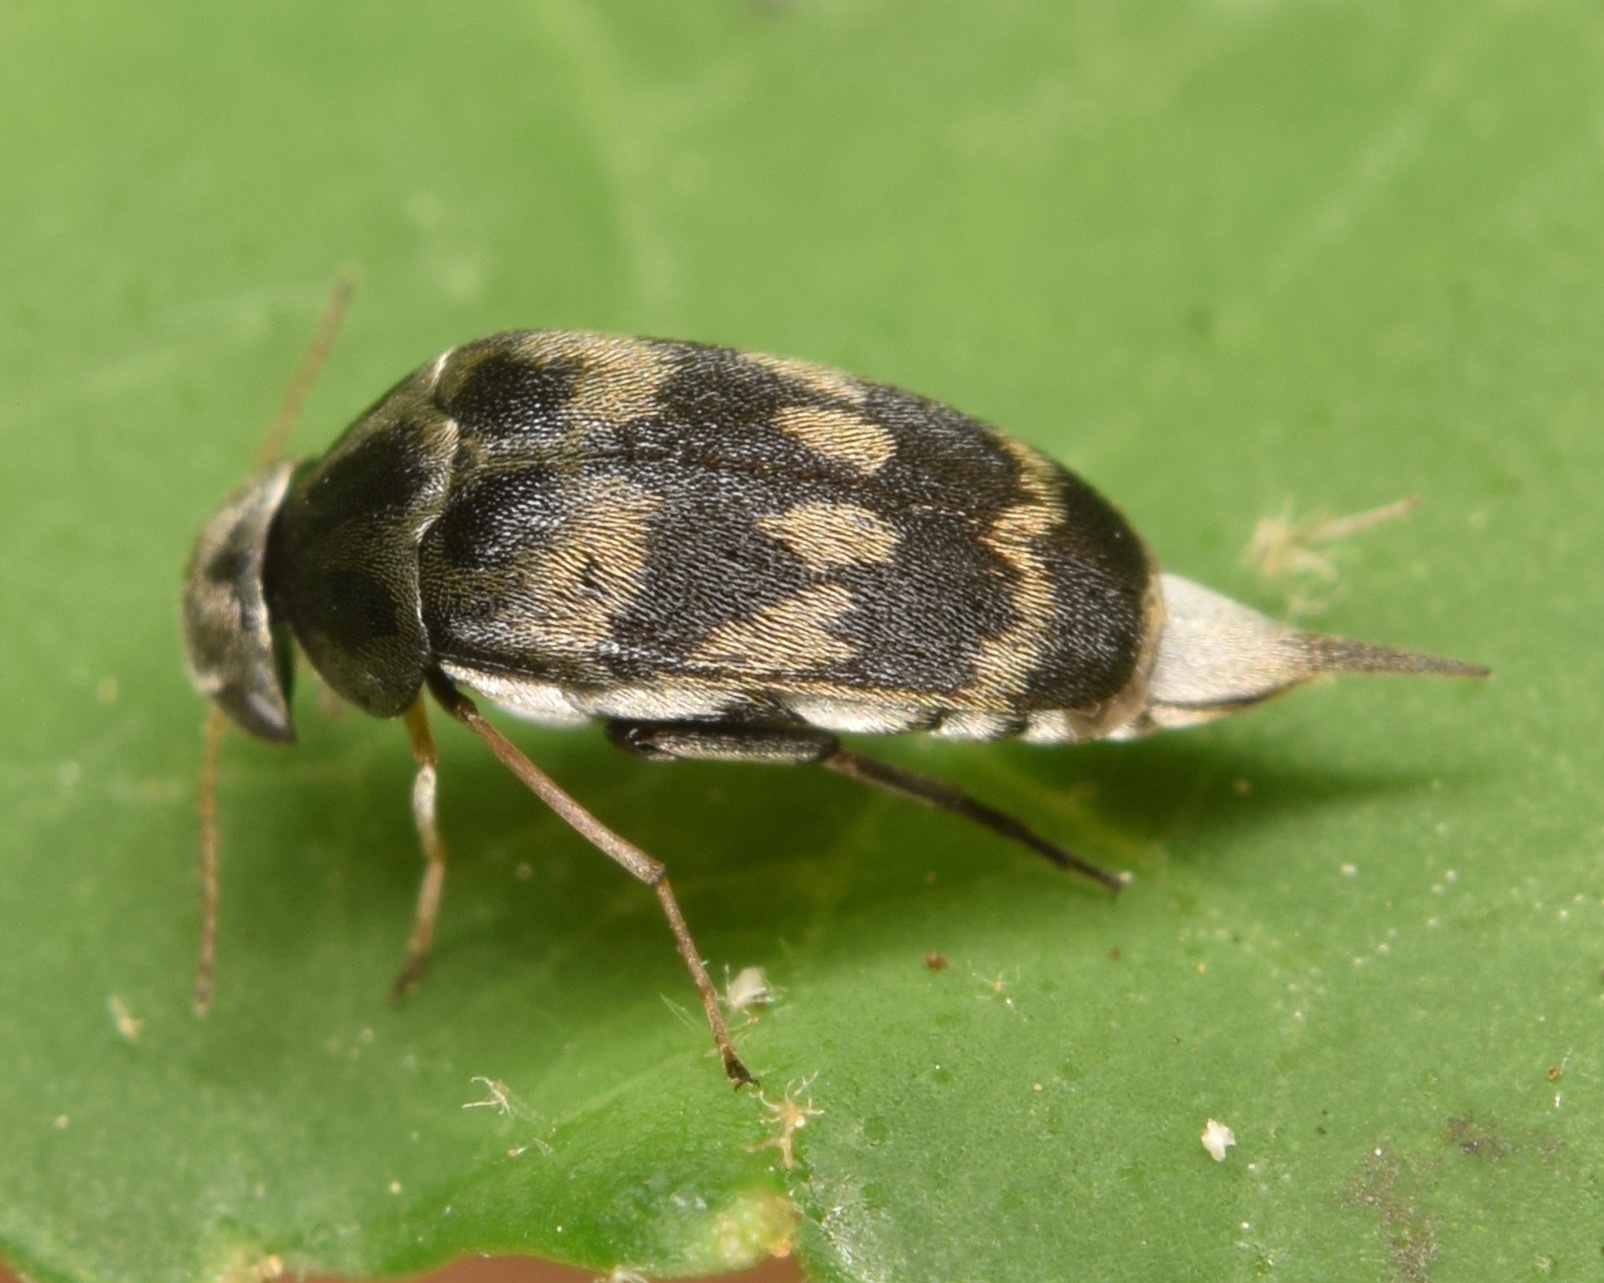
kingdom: Animalia
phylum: Arthropoda
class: Insecta
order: Coleoptera
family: Mordellidae
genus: Paramordellaria
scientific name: Paramordellaria triloba
